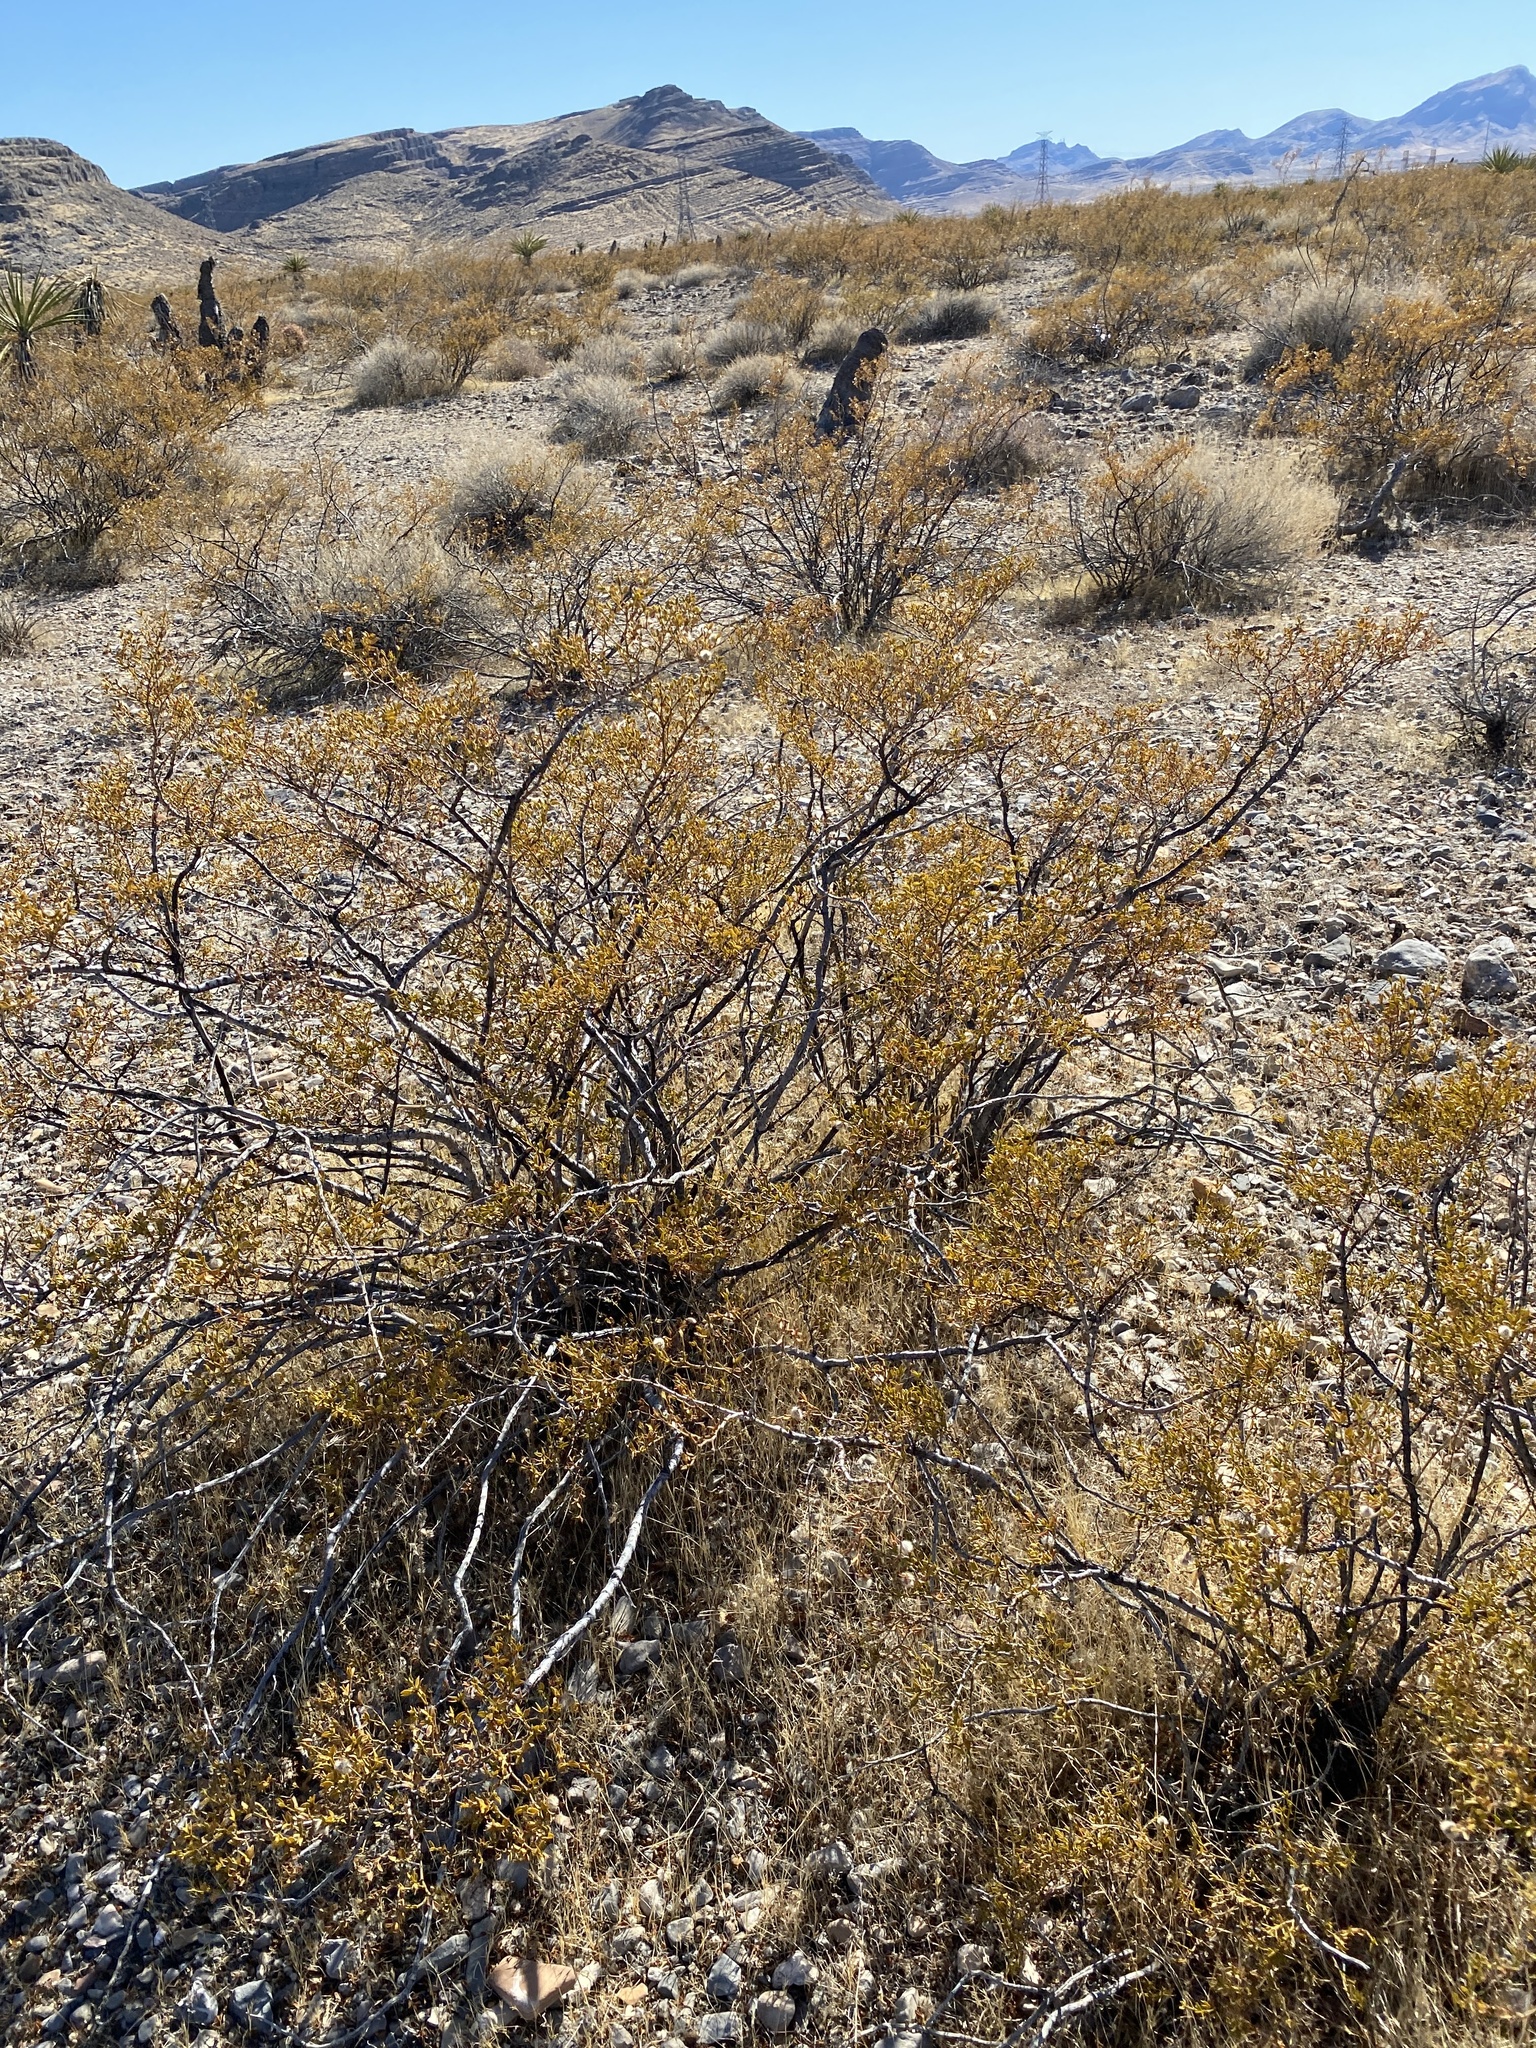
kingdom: Plantae
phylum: Tracheophyta
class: Magnoliopsida
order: Zygophyllales
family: Zygophyllaceae
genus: Larrea
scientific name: Larrea tridentata
